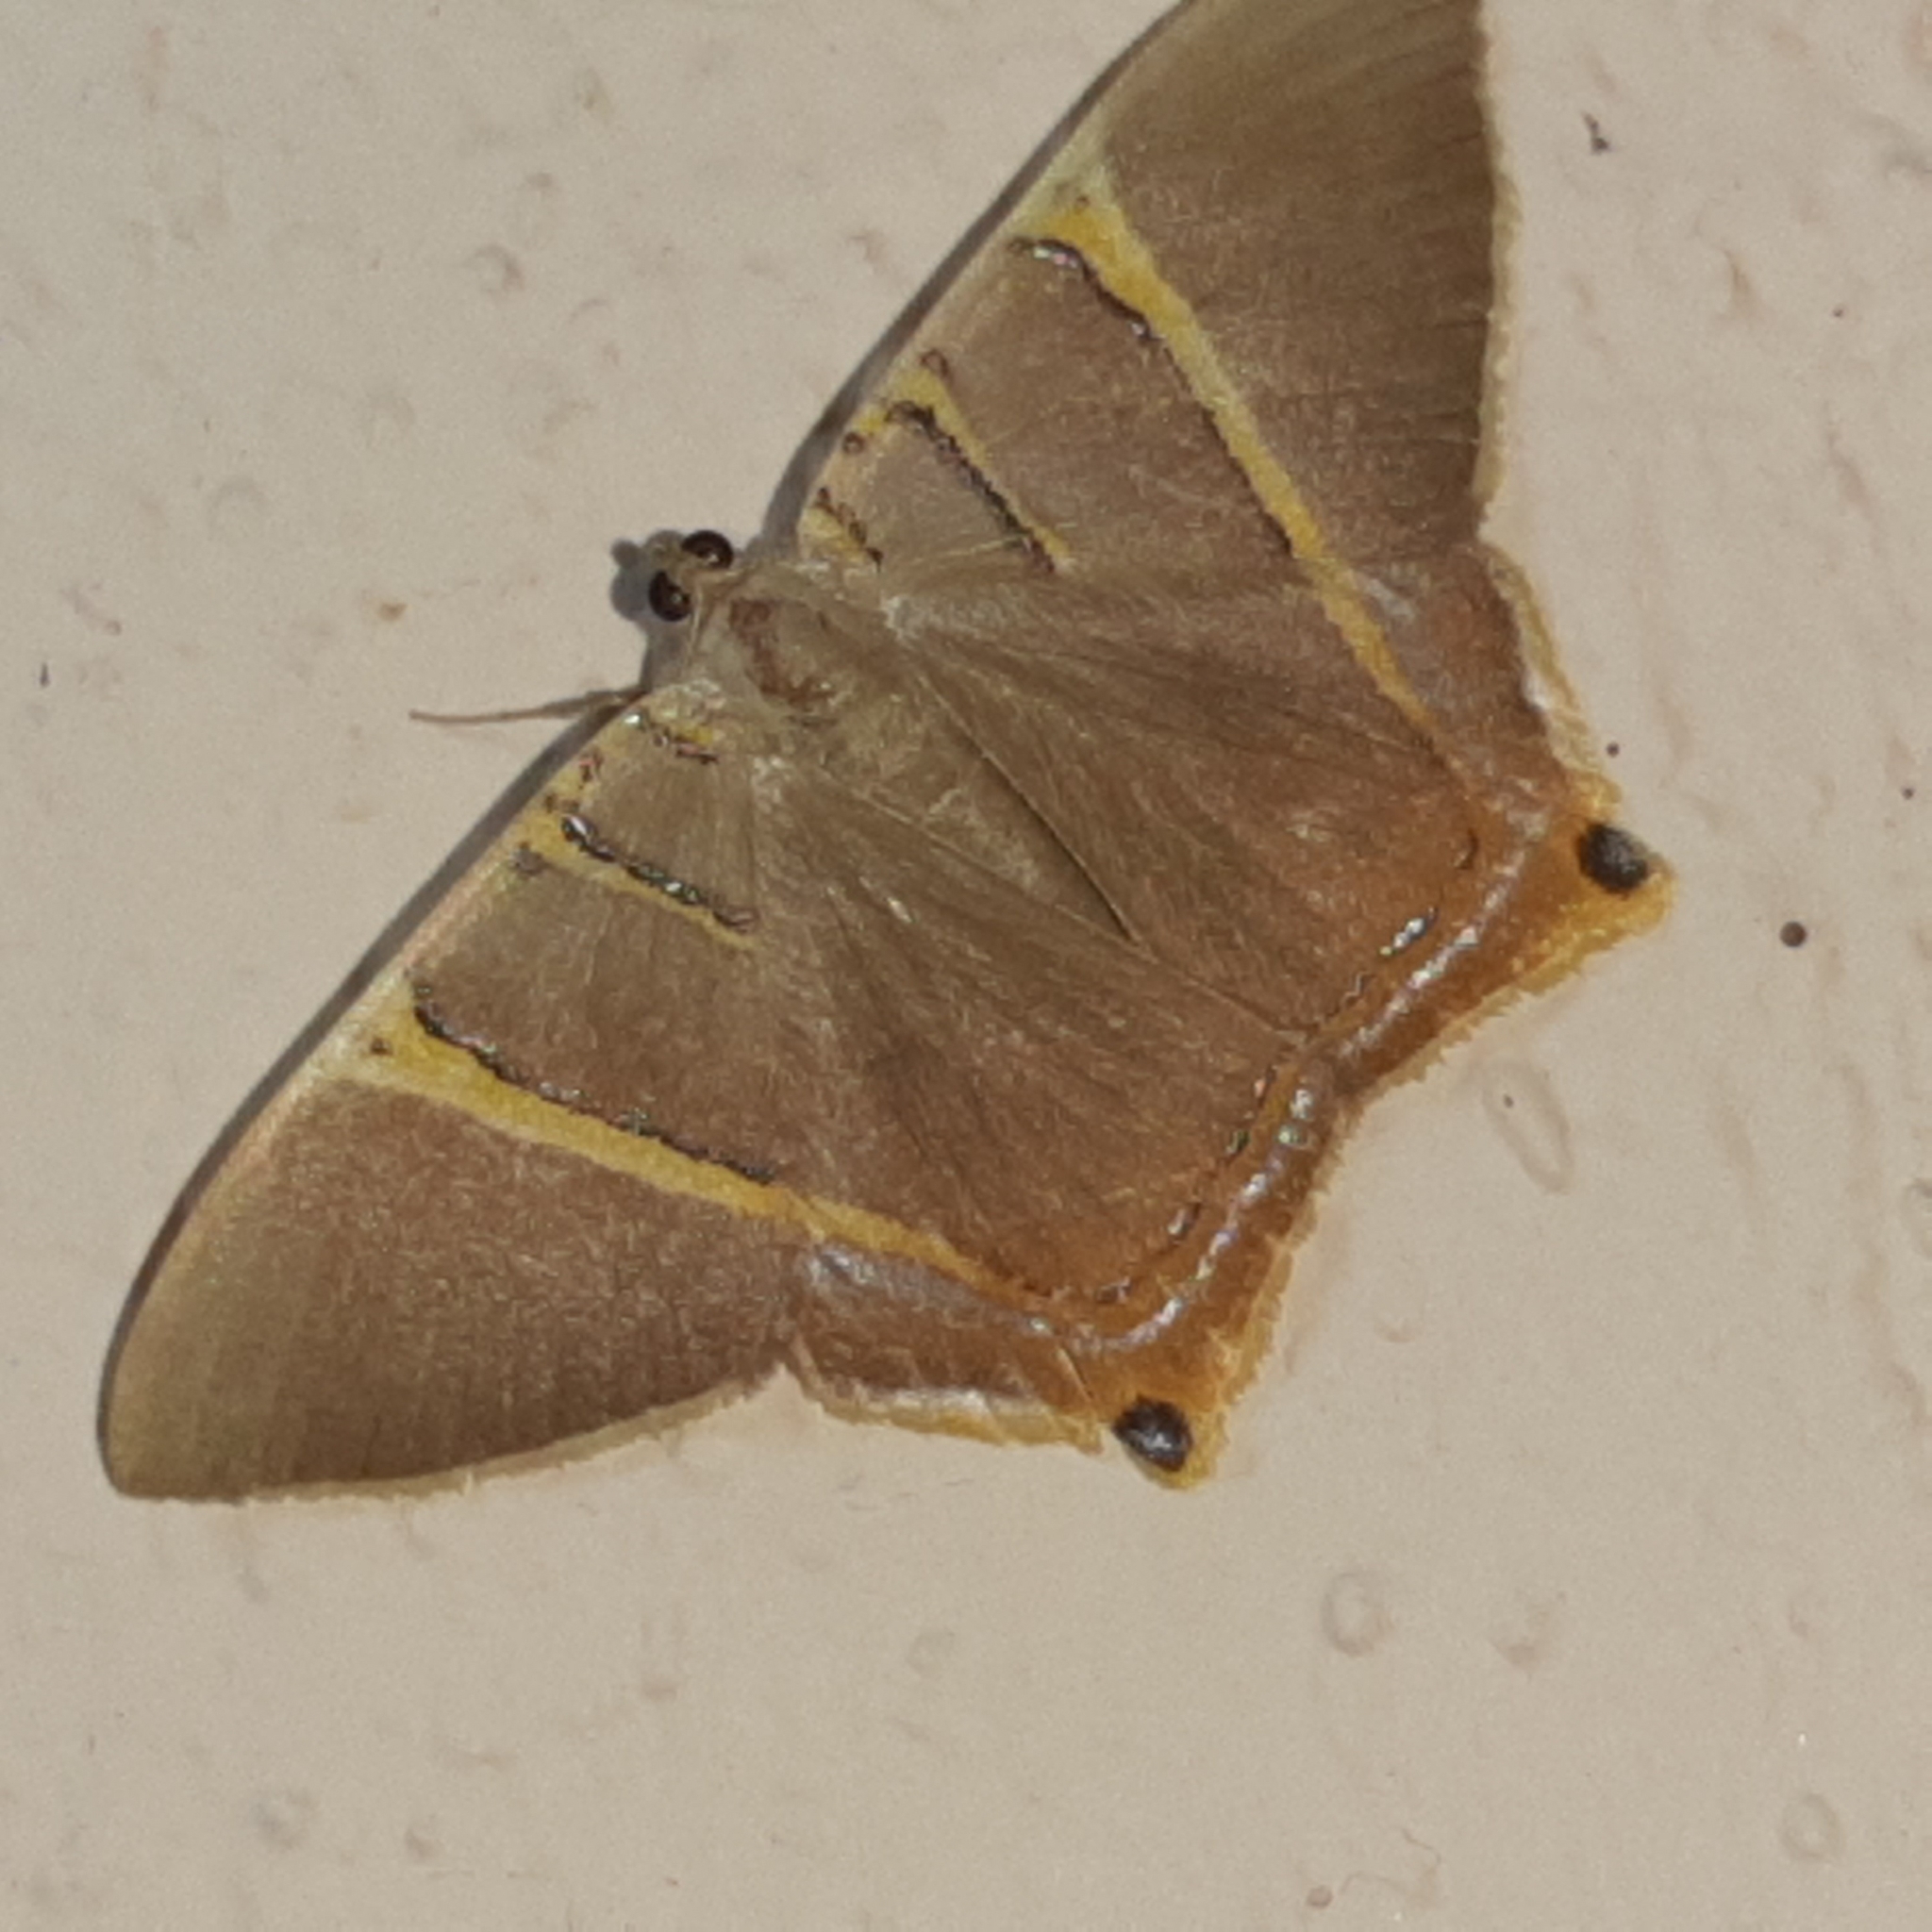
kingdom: Animalia
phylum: Arthropoda
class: Insecta
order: Lepidoptera
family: Geometridae
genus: Phrygionis
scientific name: Phrygionis polita
